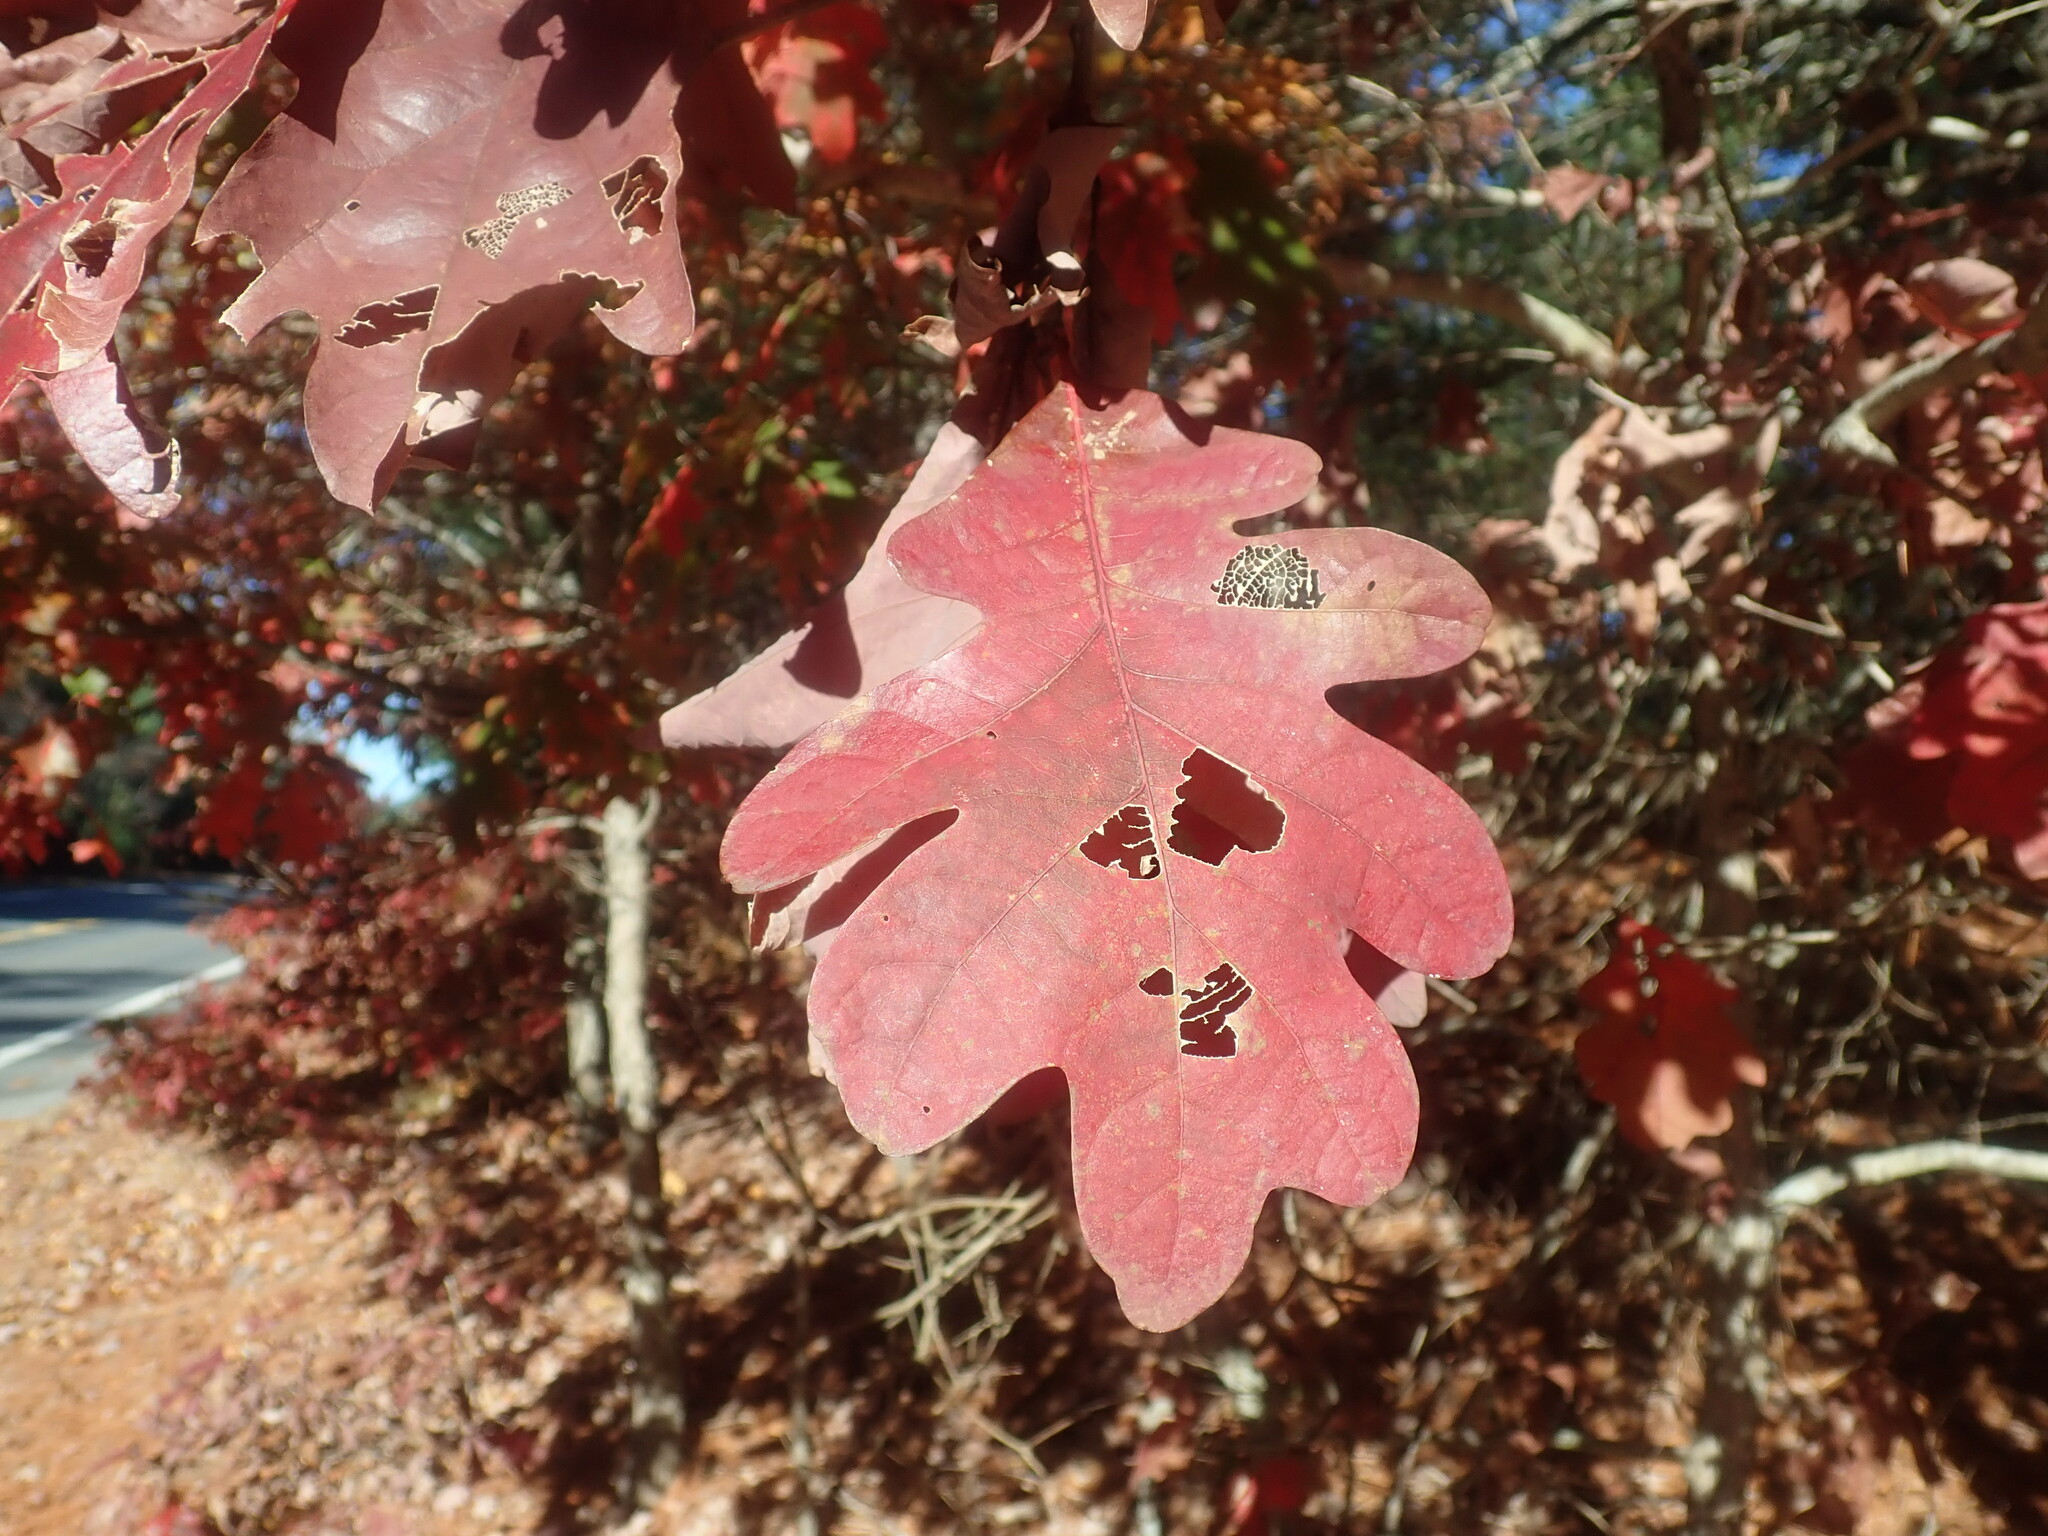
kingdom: Plantae
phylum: Tracheophyta
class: Magnoliopsida
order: Fagales
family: Fagaceae
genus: Quercus
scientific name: Quercus alba
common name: White oak
